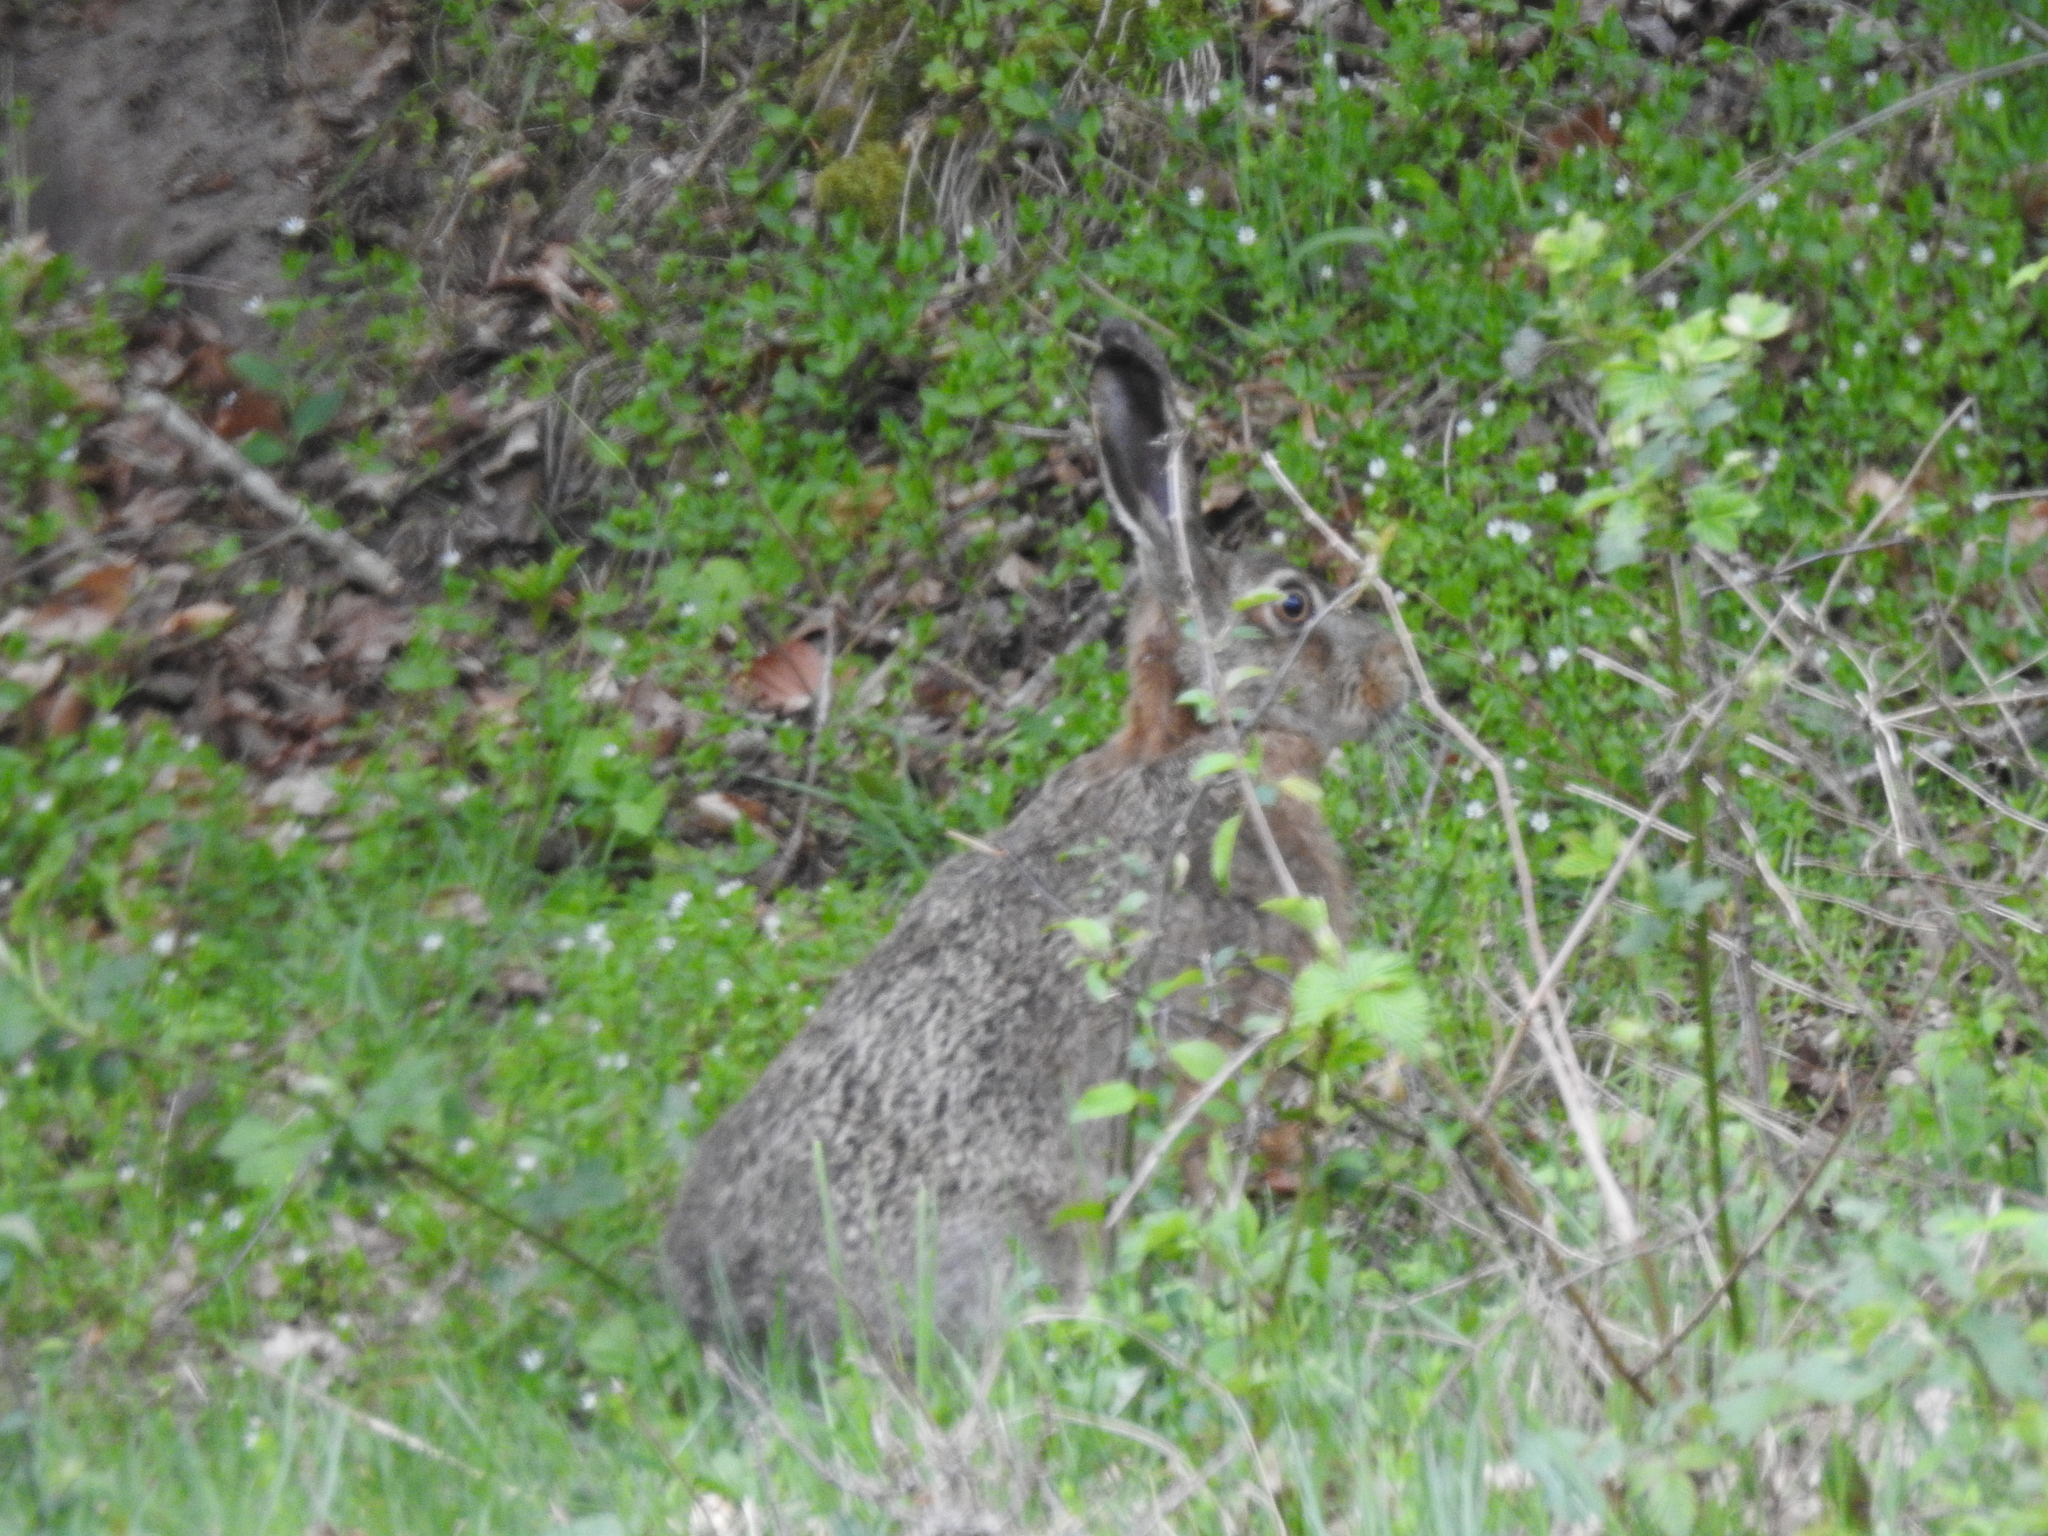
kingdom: Animalia
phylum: Chordata
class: Mammalia
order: Lagomorpha
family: Leporidae
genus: Lepus
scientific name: Lepus europaeus
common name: European hare
